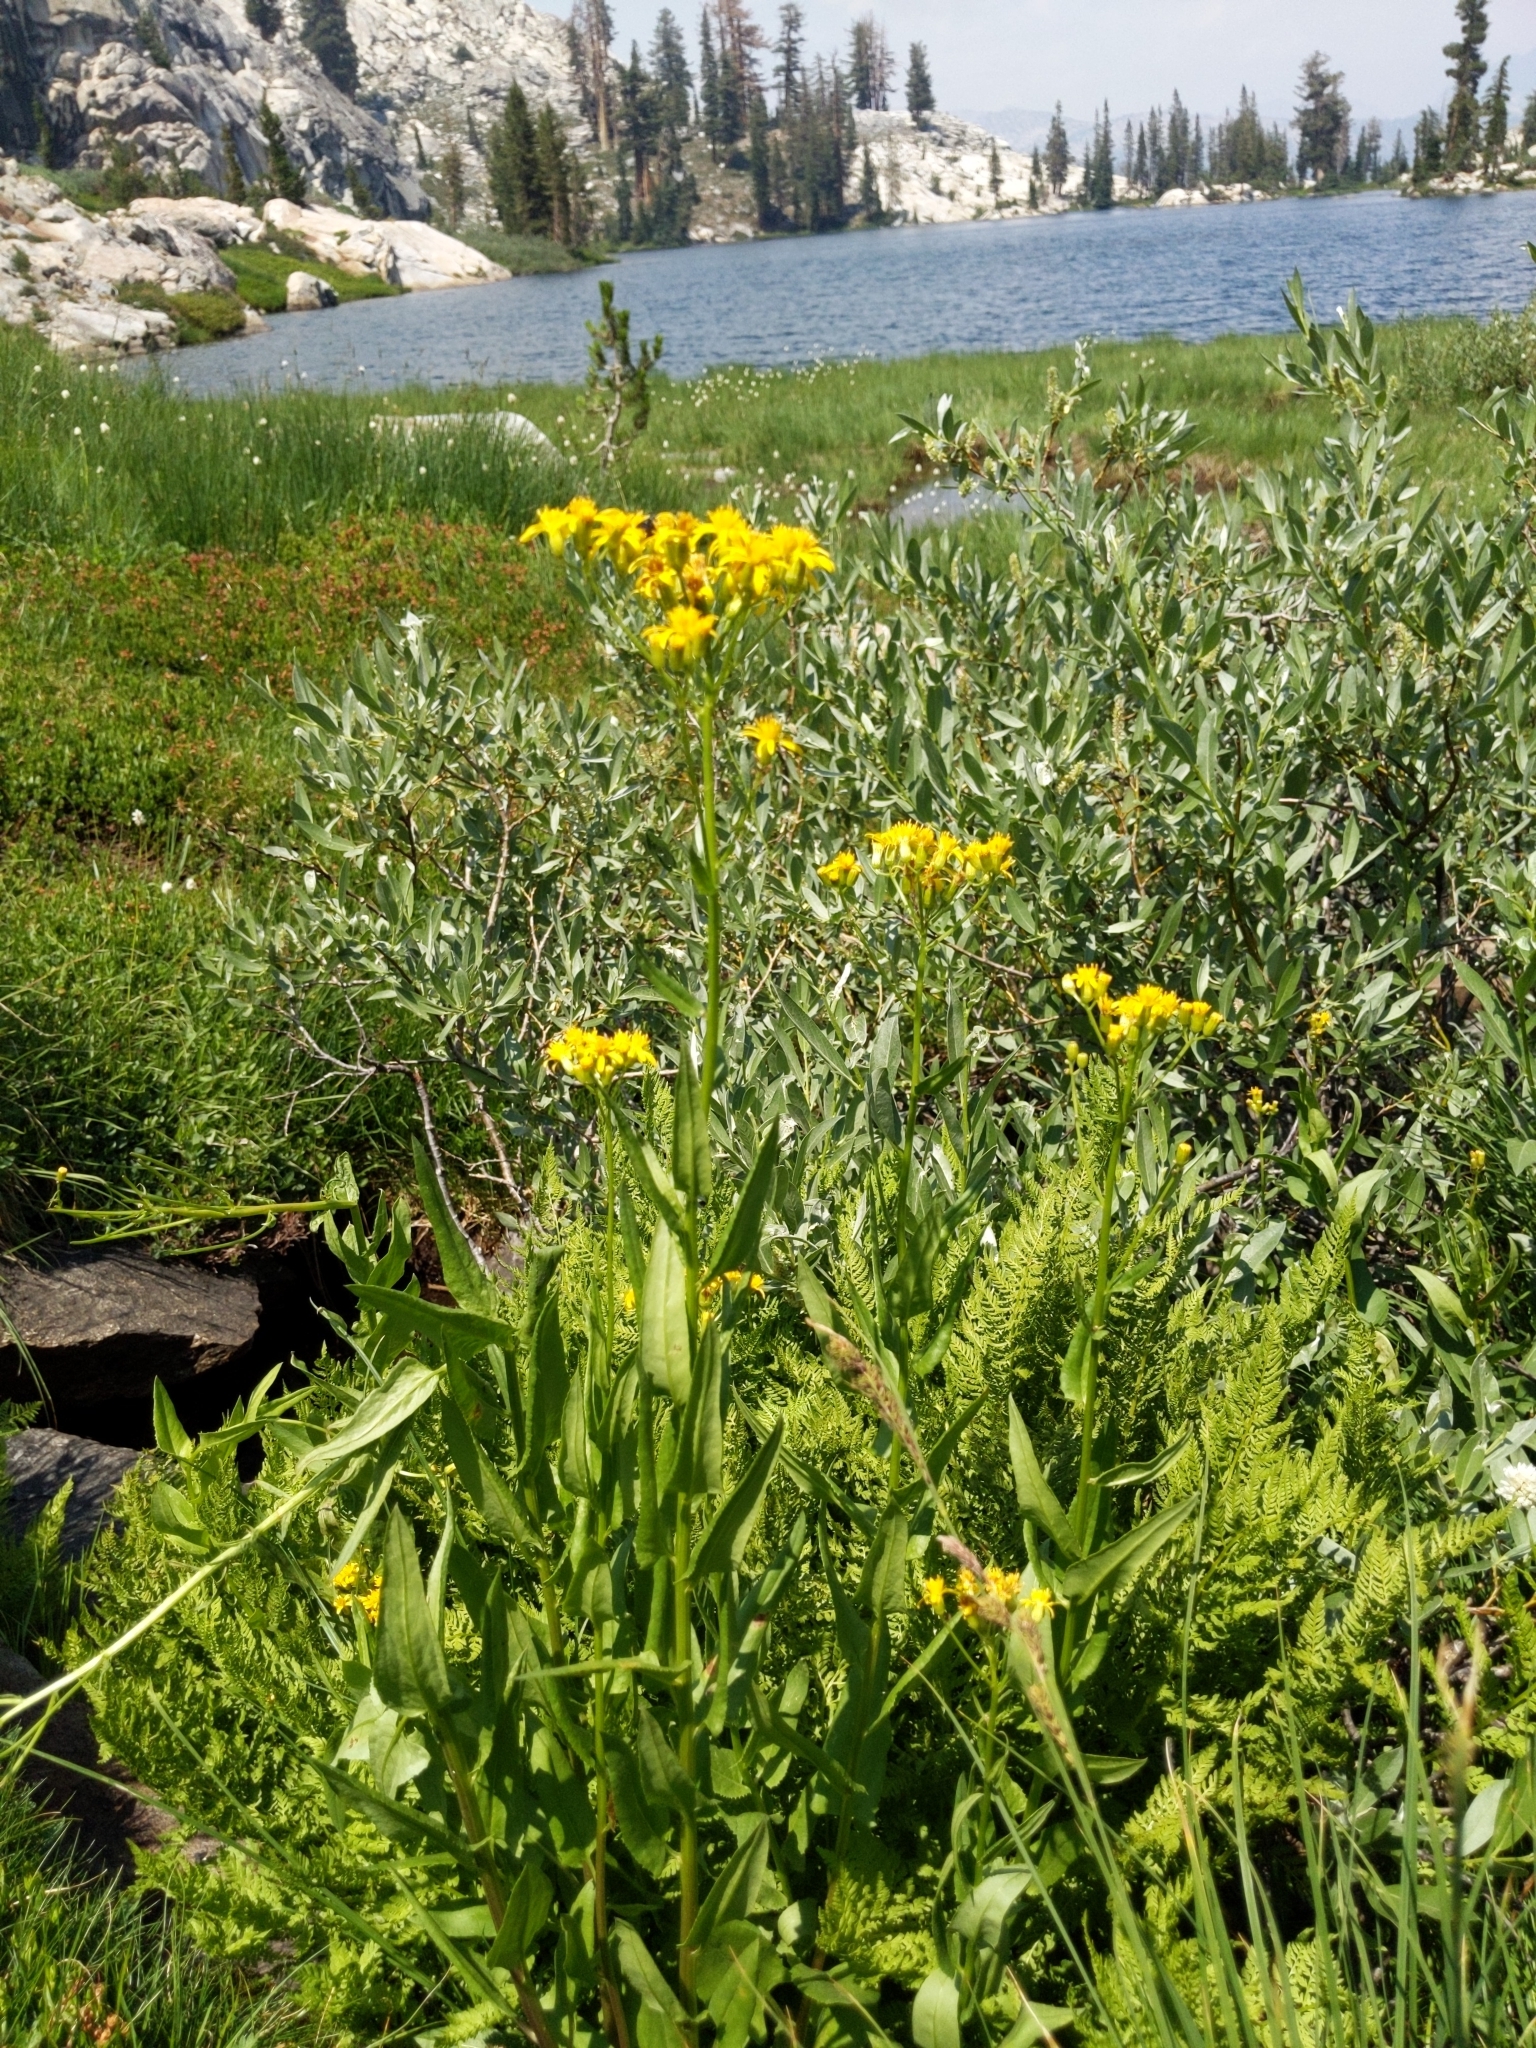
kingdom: Plantae
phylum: Tracheophyta
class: Magnoliopsida
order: Asterales
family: Asteraceae
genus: Senecio
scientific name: Senecio triangularis
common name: Arrowleaf butterweed
